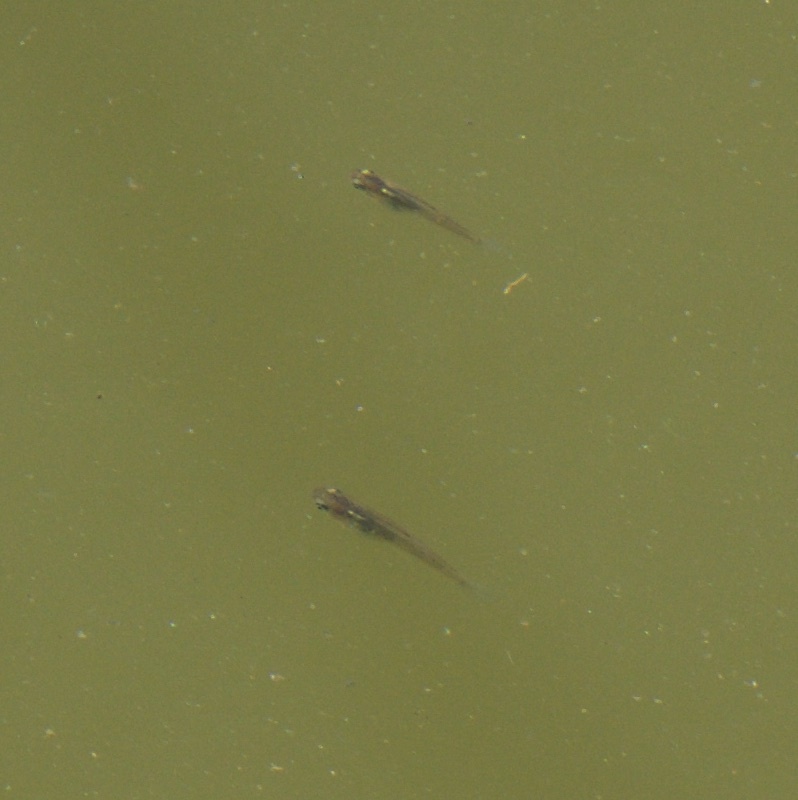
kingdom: Animalia
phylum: Chordata
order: Cyprinodontiformes
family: Poeciliidae
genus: Gambusia
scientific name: Gambusia affinis
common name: Mosquitofish
